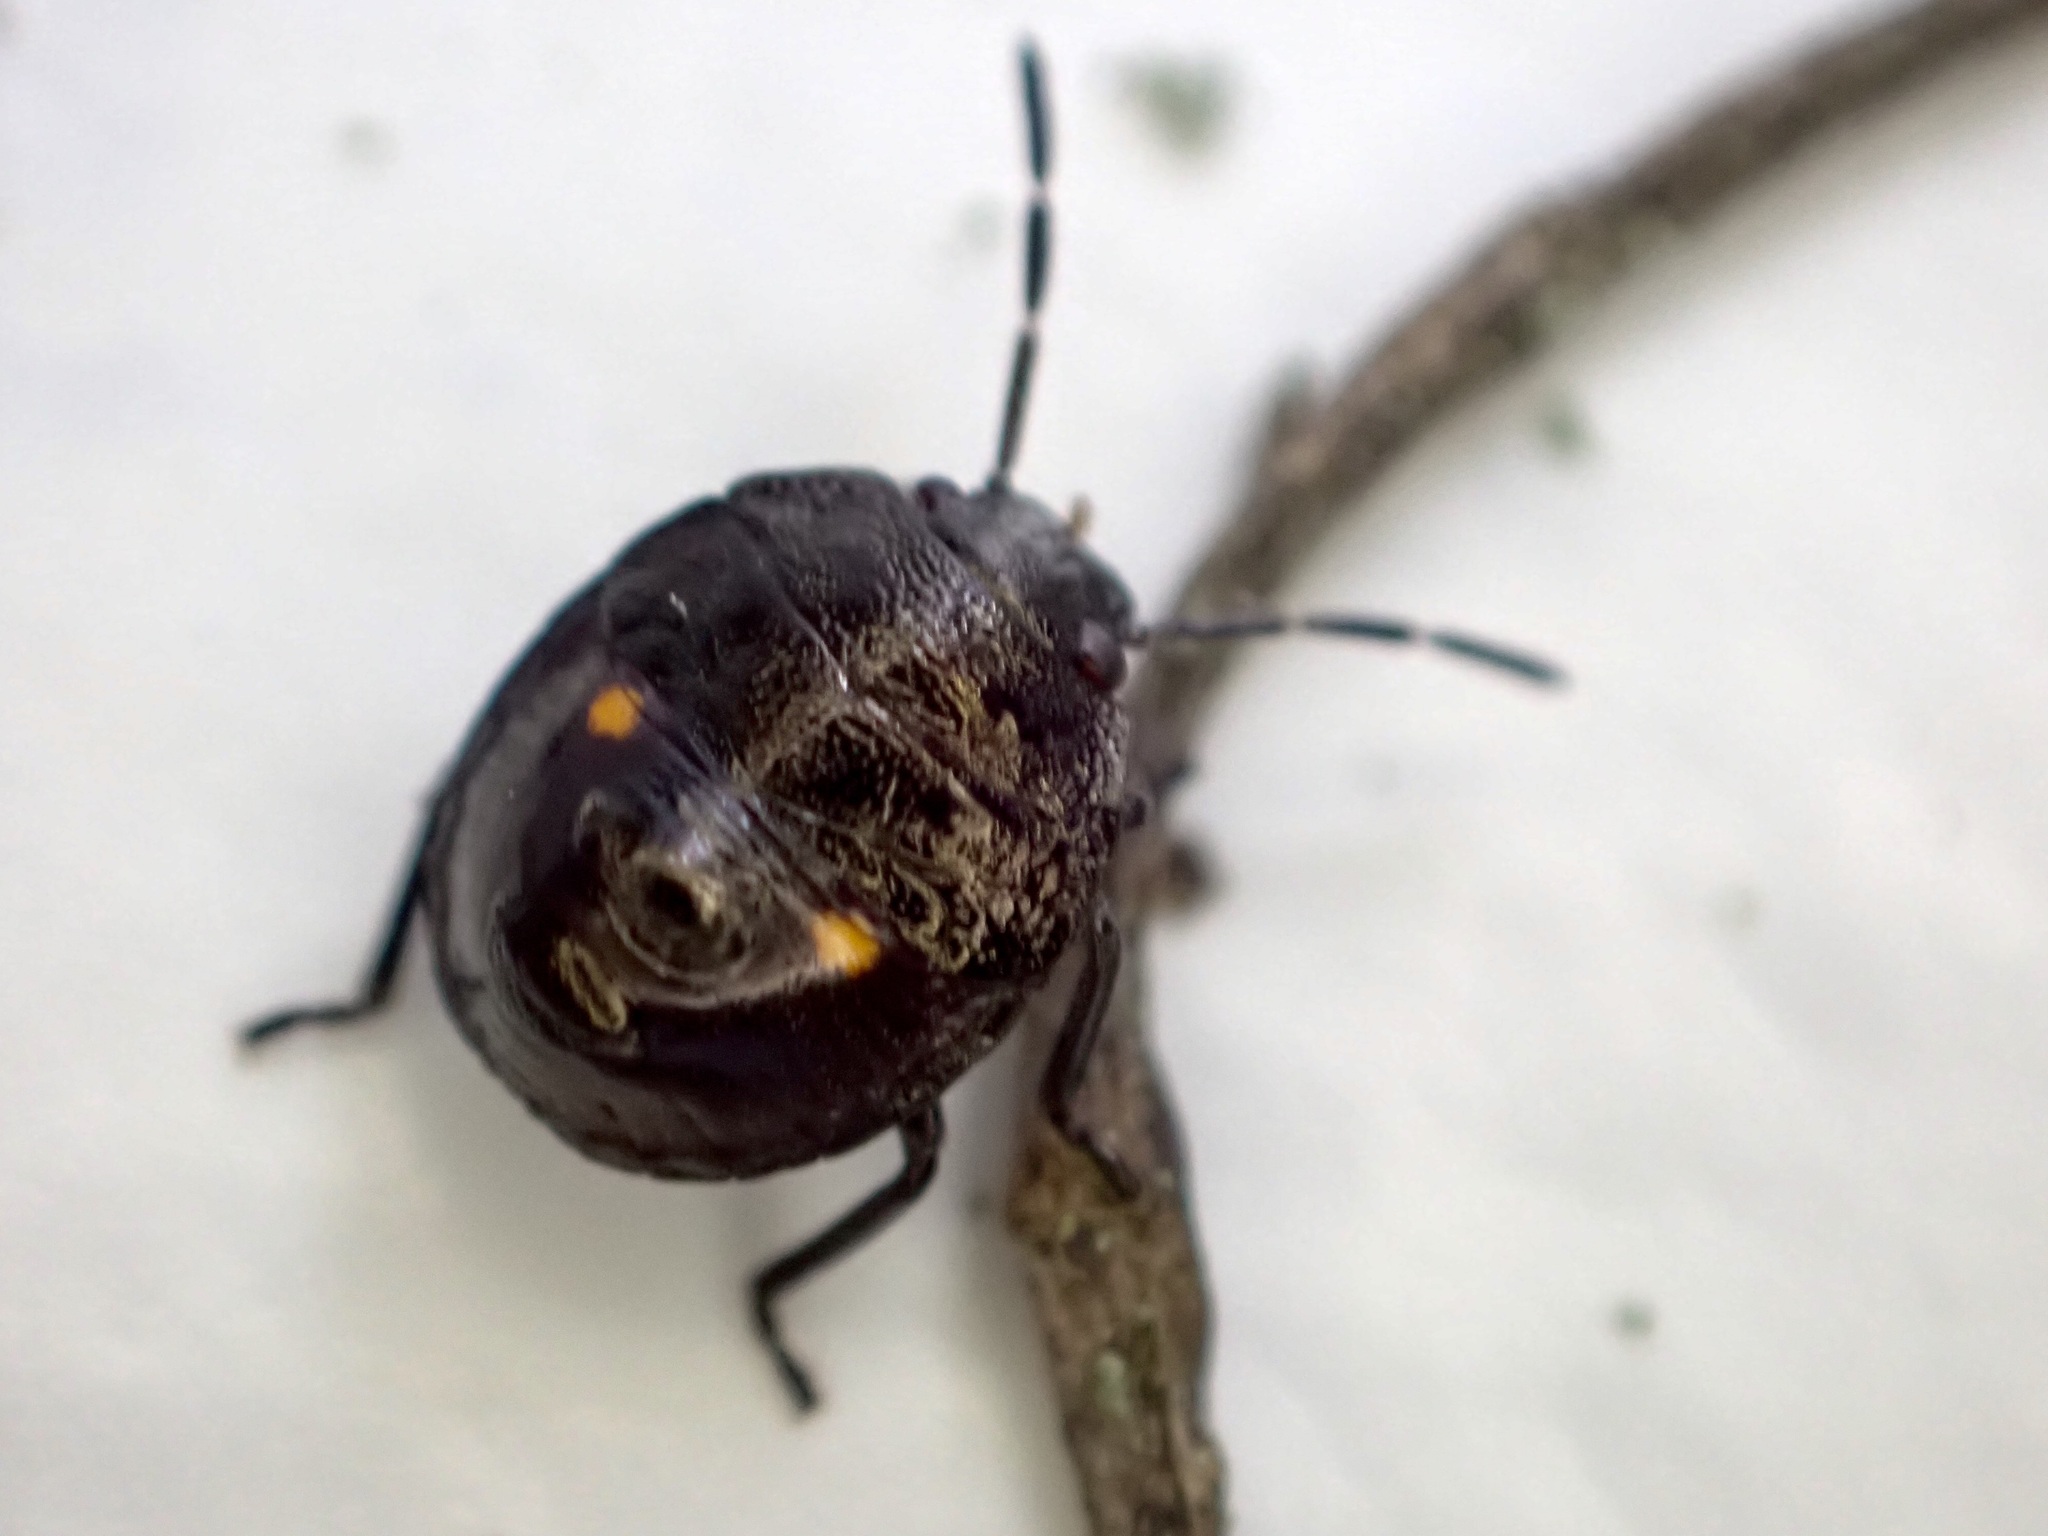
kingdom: Animalia
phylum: Arthropoda
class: Insecta
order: Hemiptera
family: Pentatomidae
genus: Monteithiella
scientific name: Monteithiella
